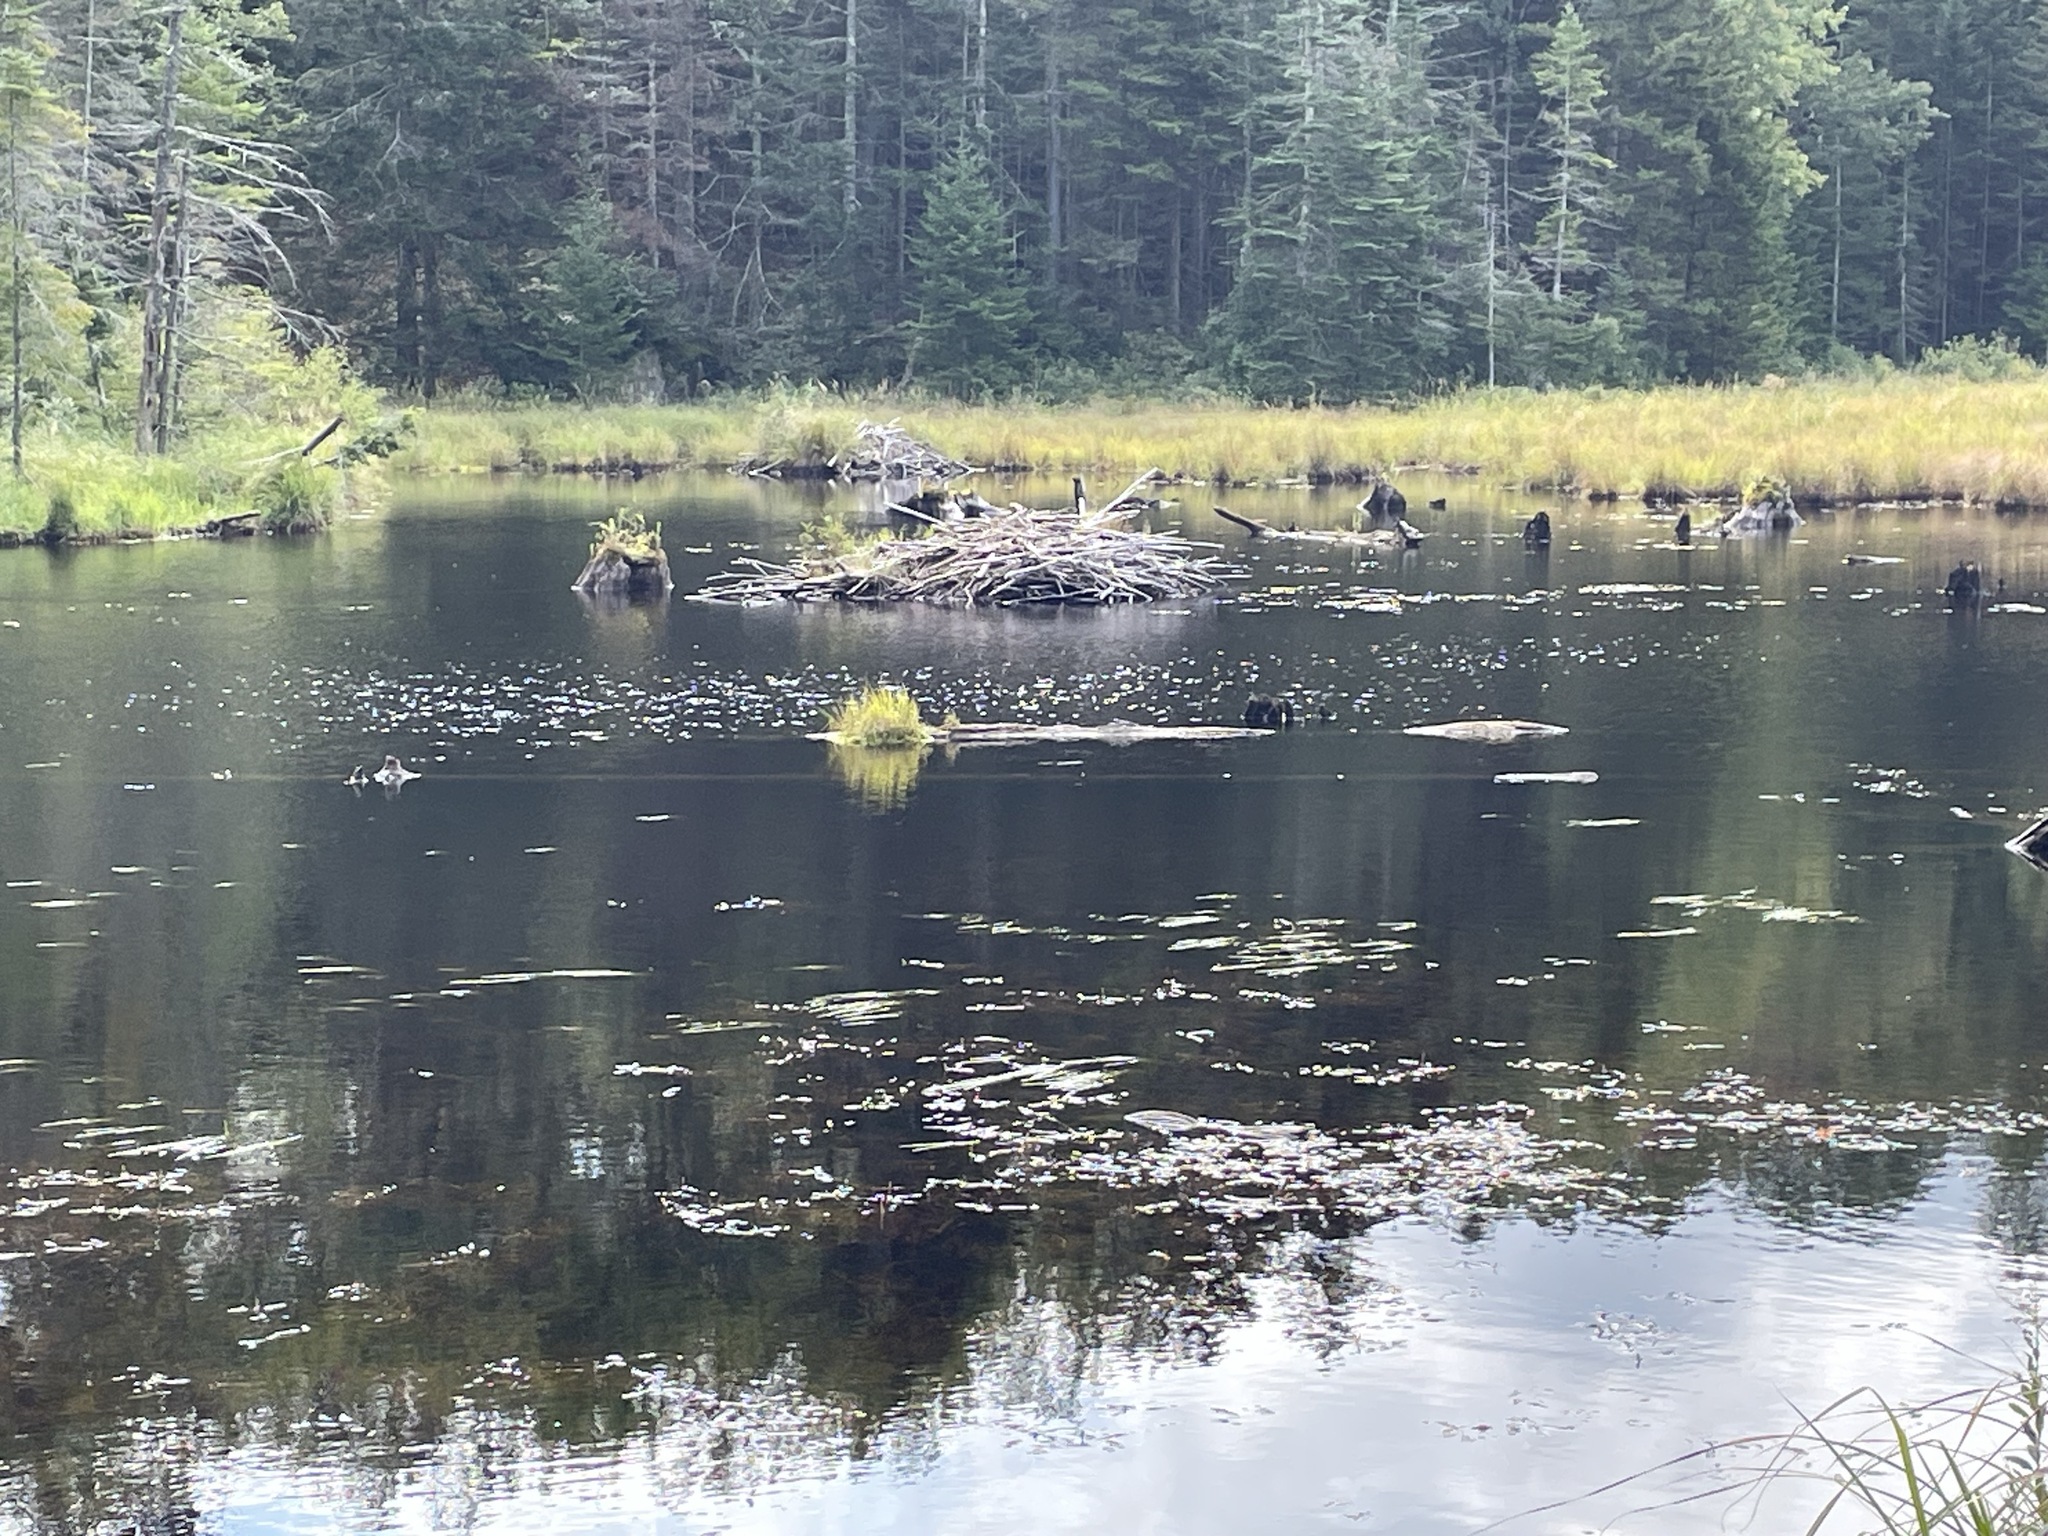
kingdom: Animalia
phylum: Chordata
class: Mammalia
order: Rodentia
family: Castoridae
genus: Castor
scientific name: Castor canadensis
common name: American beaver
